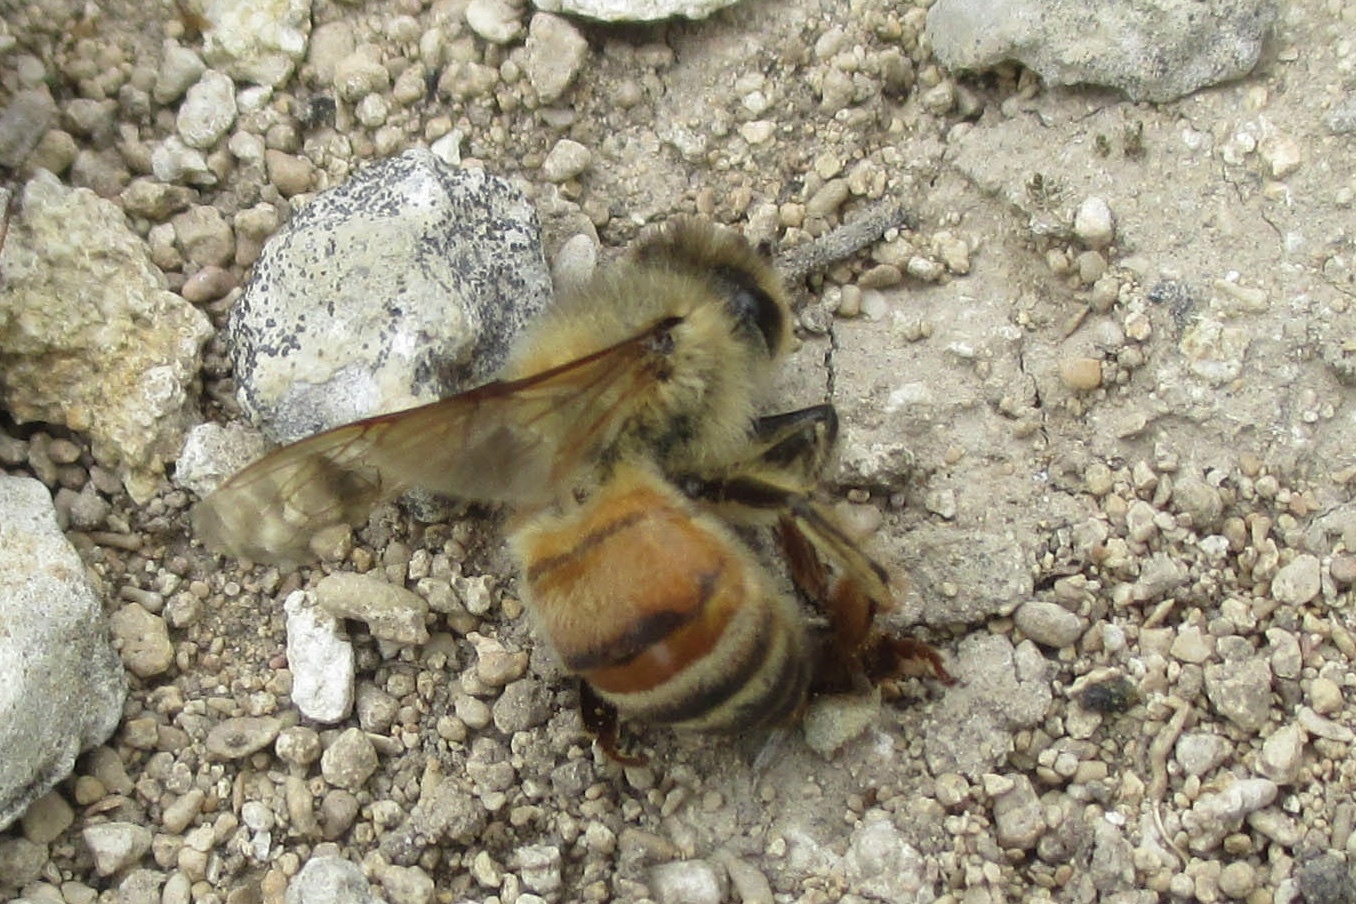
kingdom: Animalia
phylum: Arthropoda
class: Insecta
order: Hymenoptera
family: Apidae
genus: Apis
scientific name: Apis mellifera
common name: Honey bee
